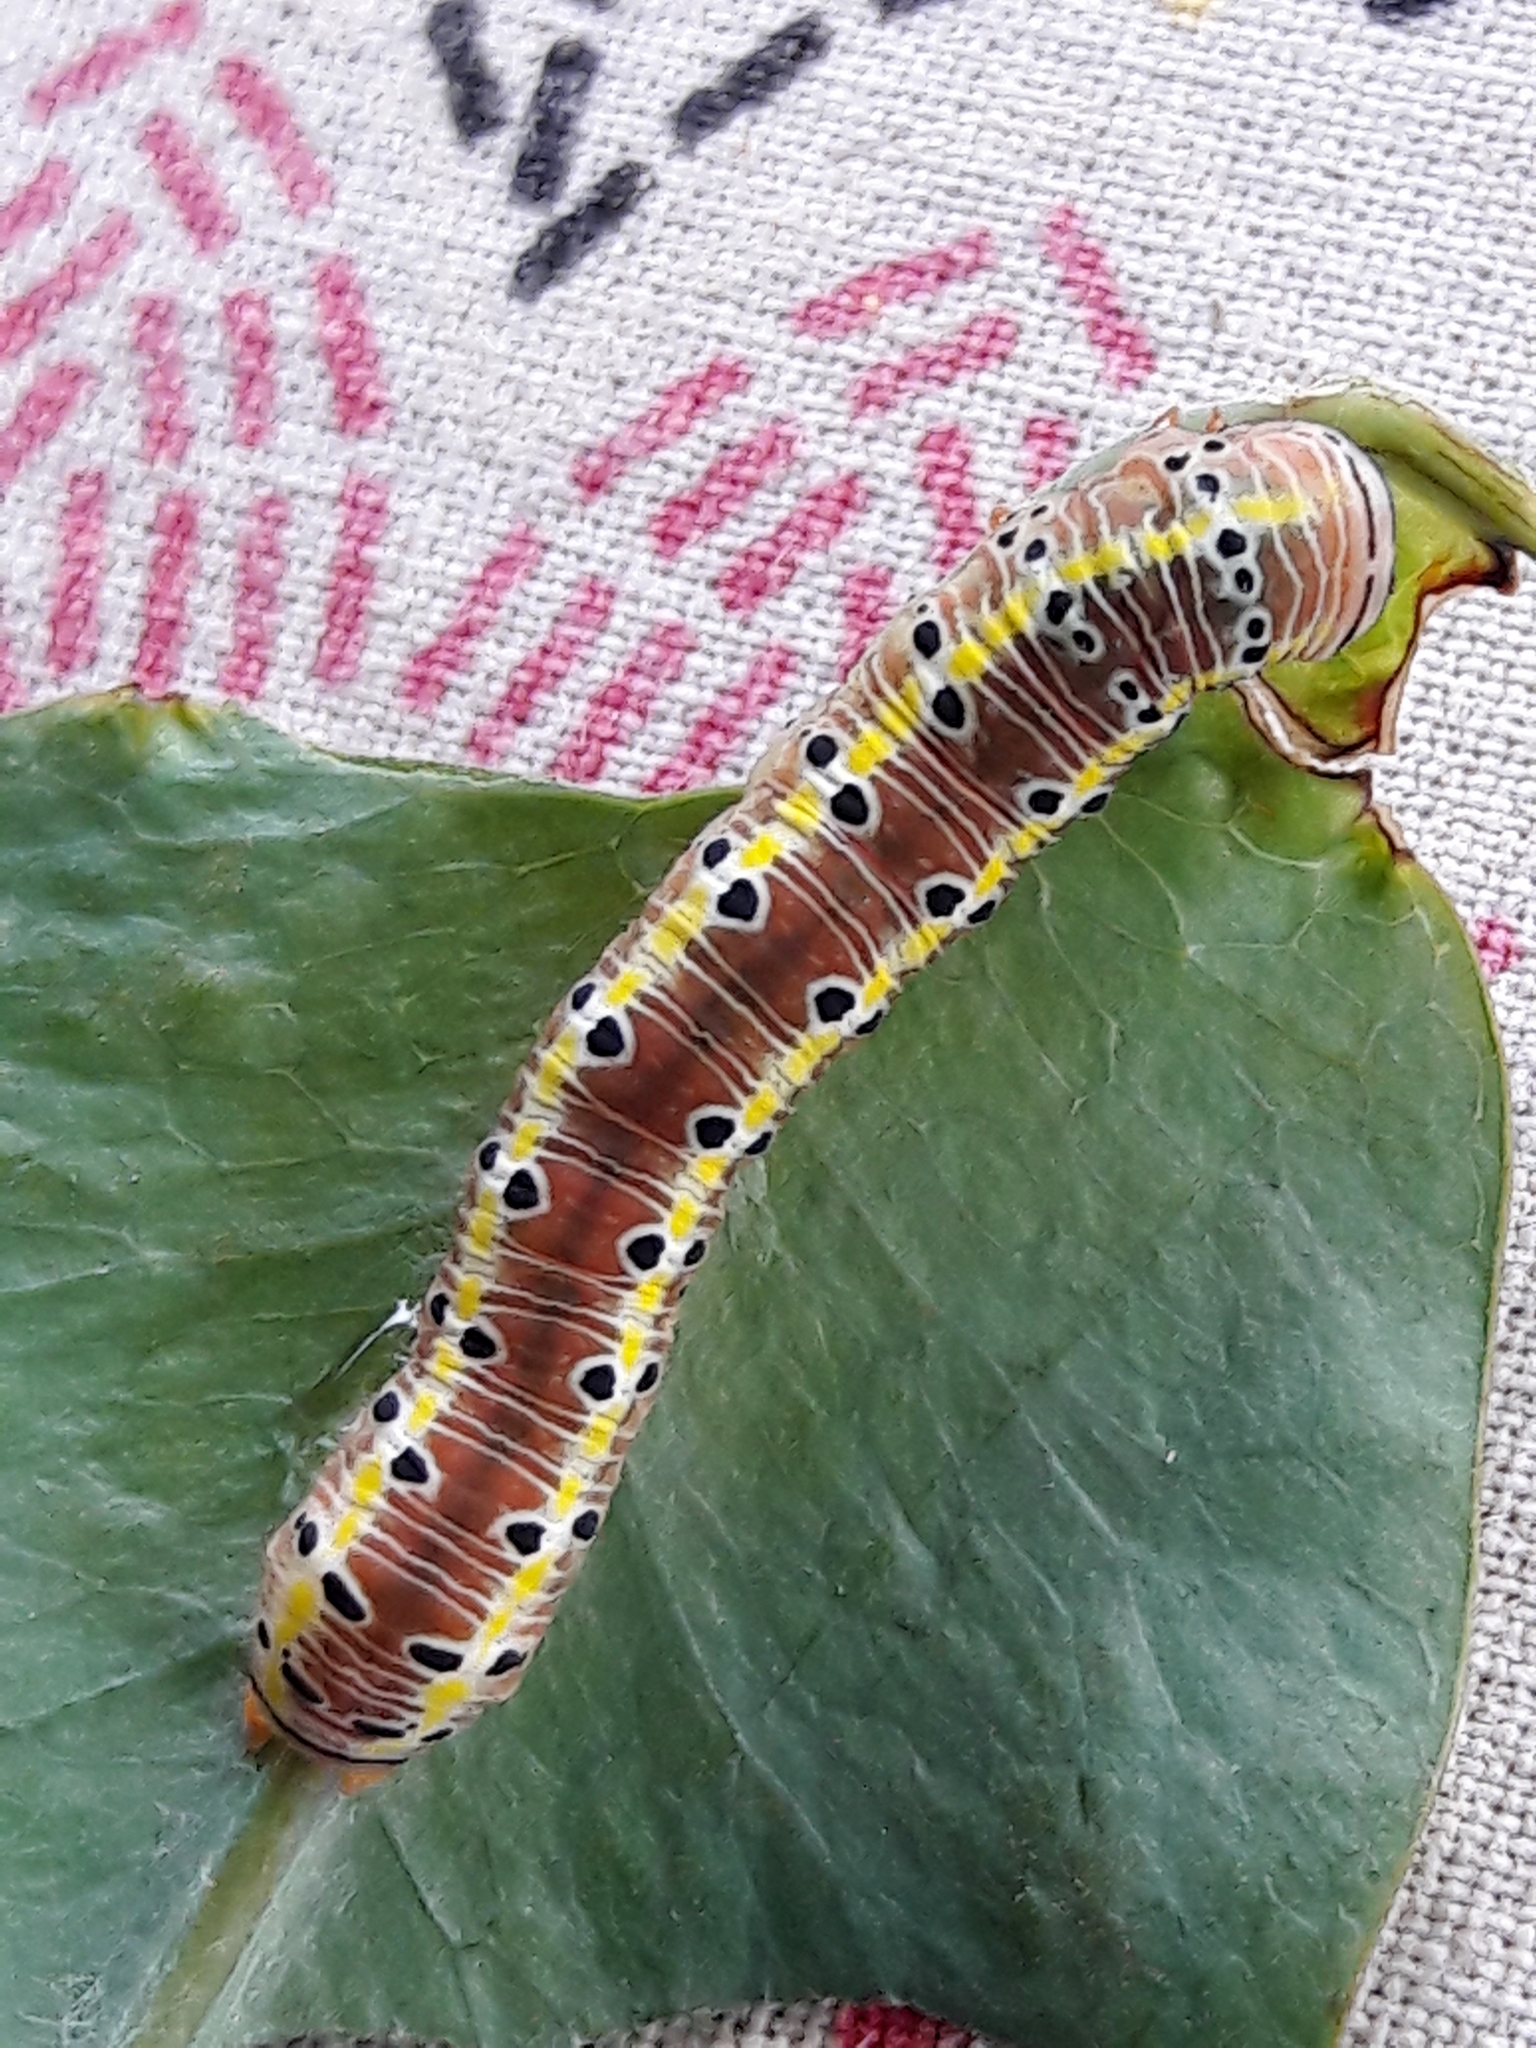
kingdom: Animalia
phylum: Arthropoda
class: Insecta
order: Lepidoptera
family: Noctuidae
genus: Argyrosticta
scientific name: Argyrosticta decumana
